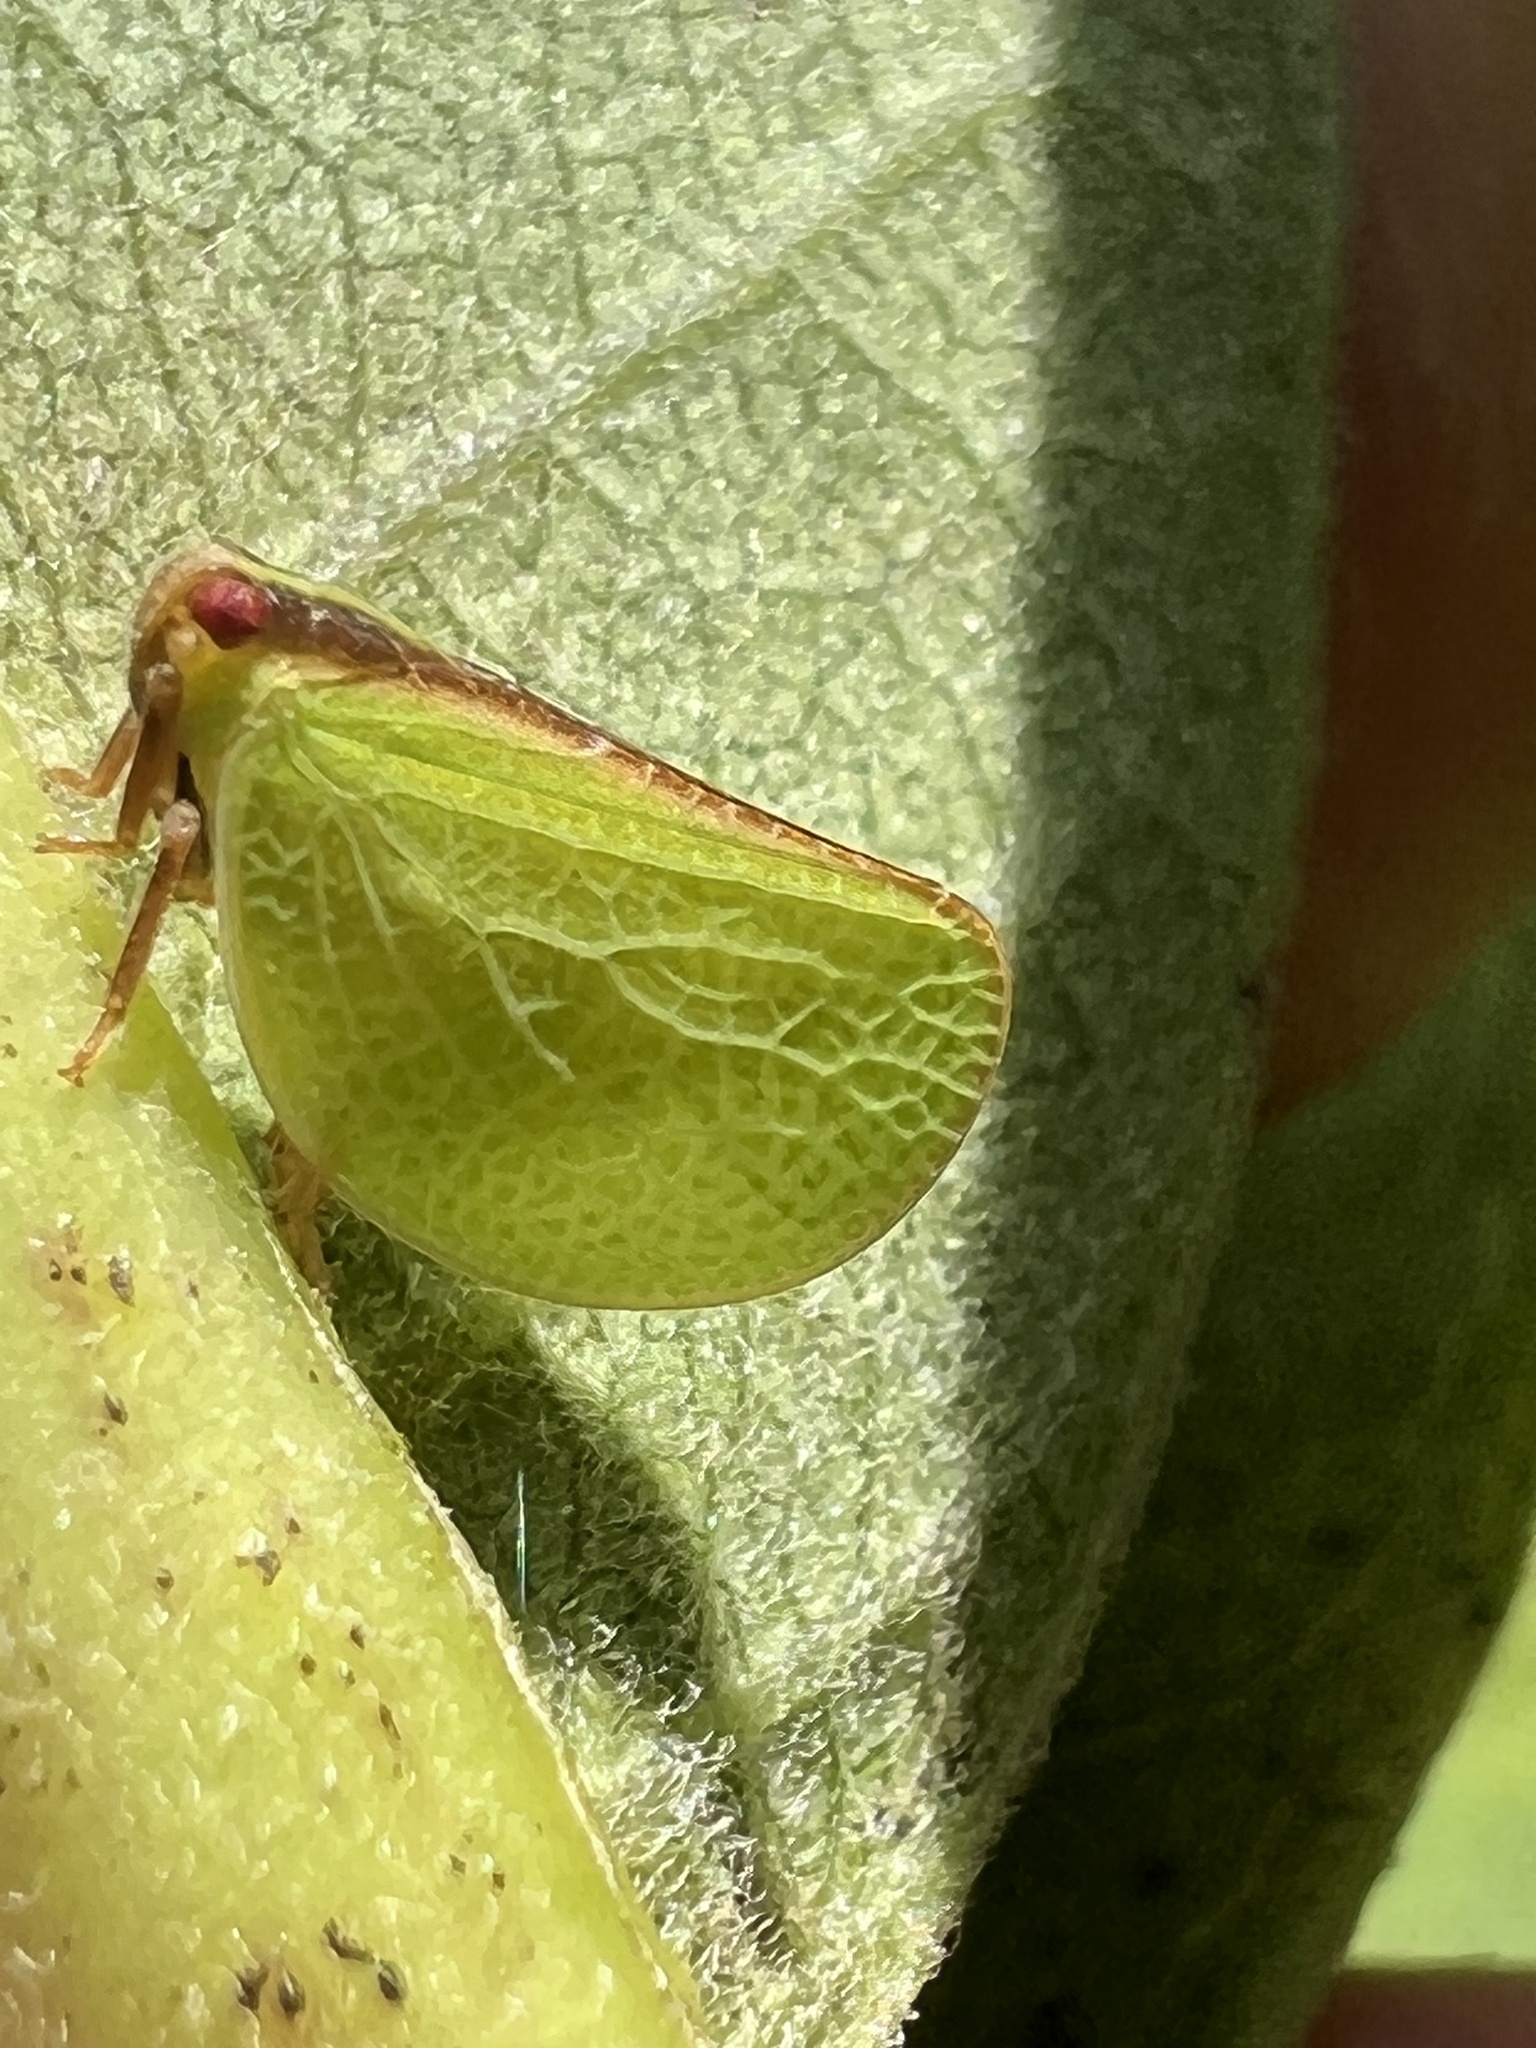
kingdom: Animalia
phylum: Arthropoda
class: Insecta
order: Hemiptera
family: Acanaloniidae
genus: Acanalonia
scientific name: Acanalonia bivittata
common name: Two-striped planthopper
